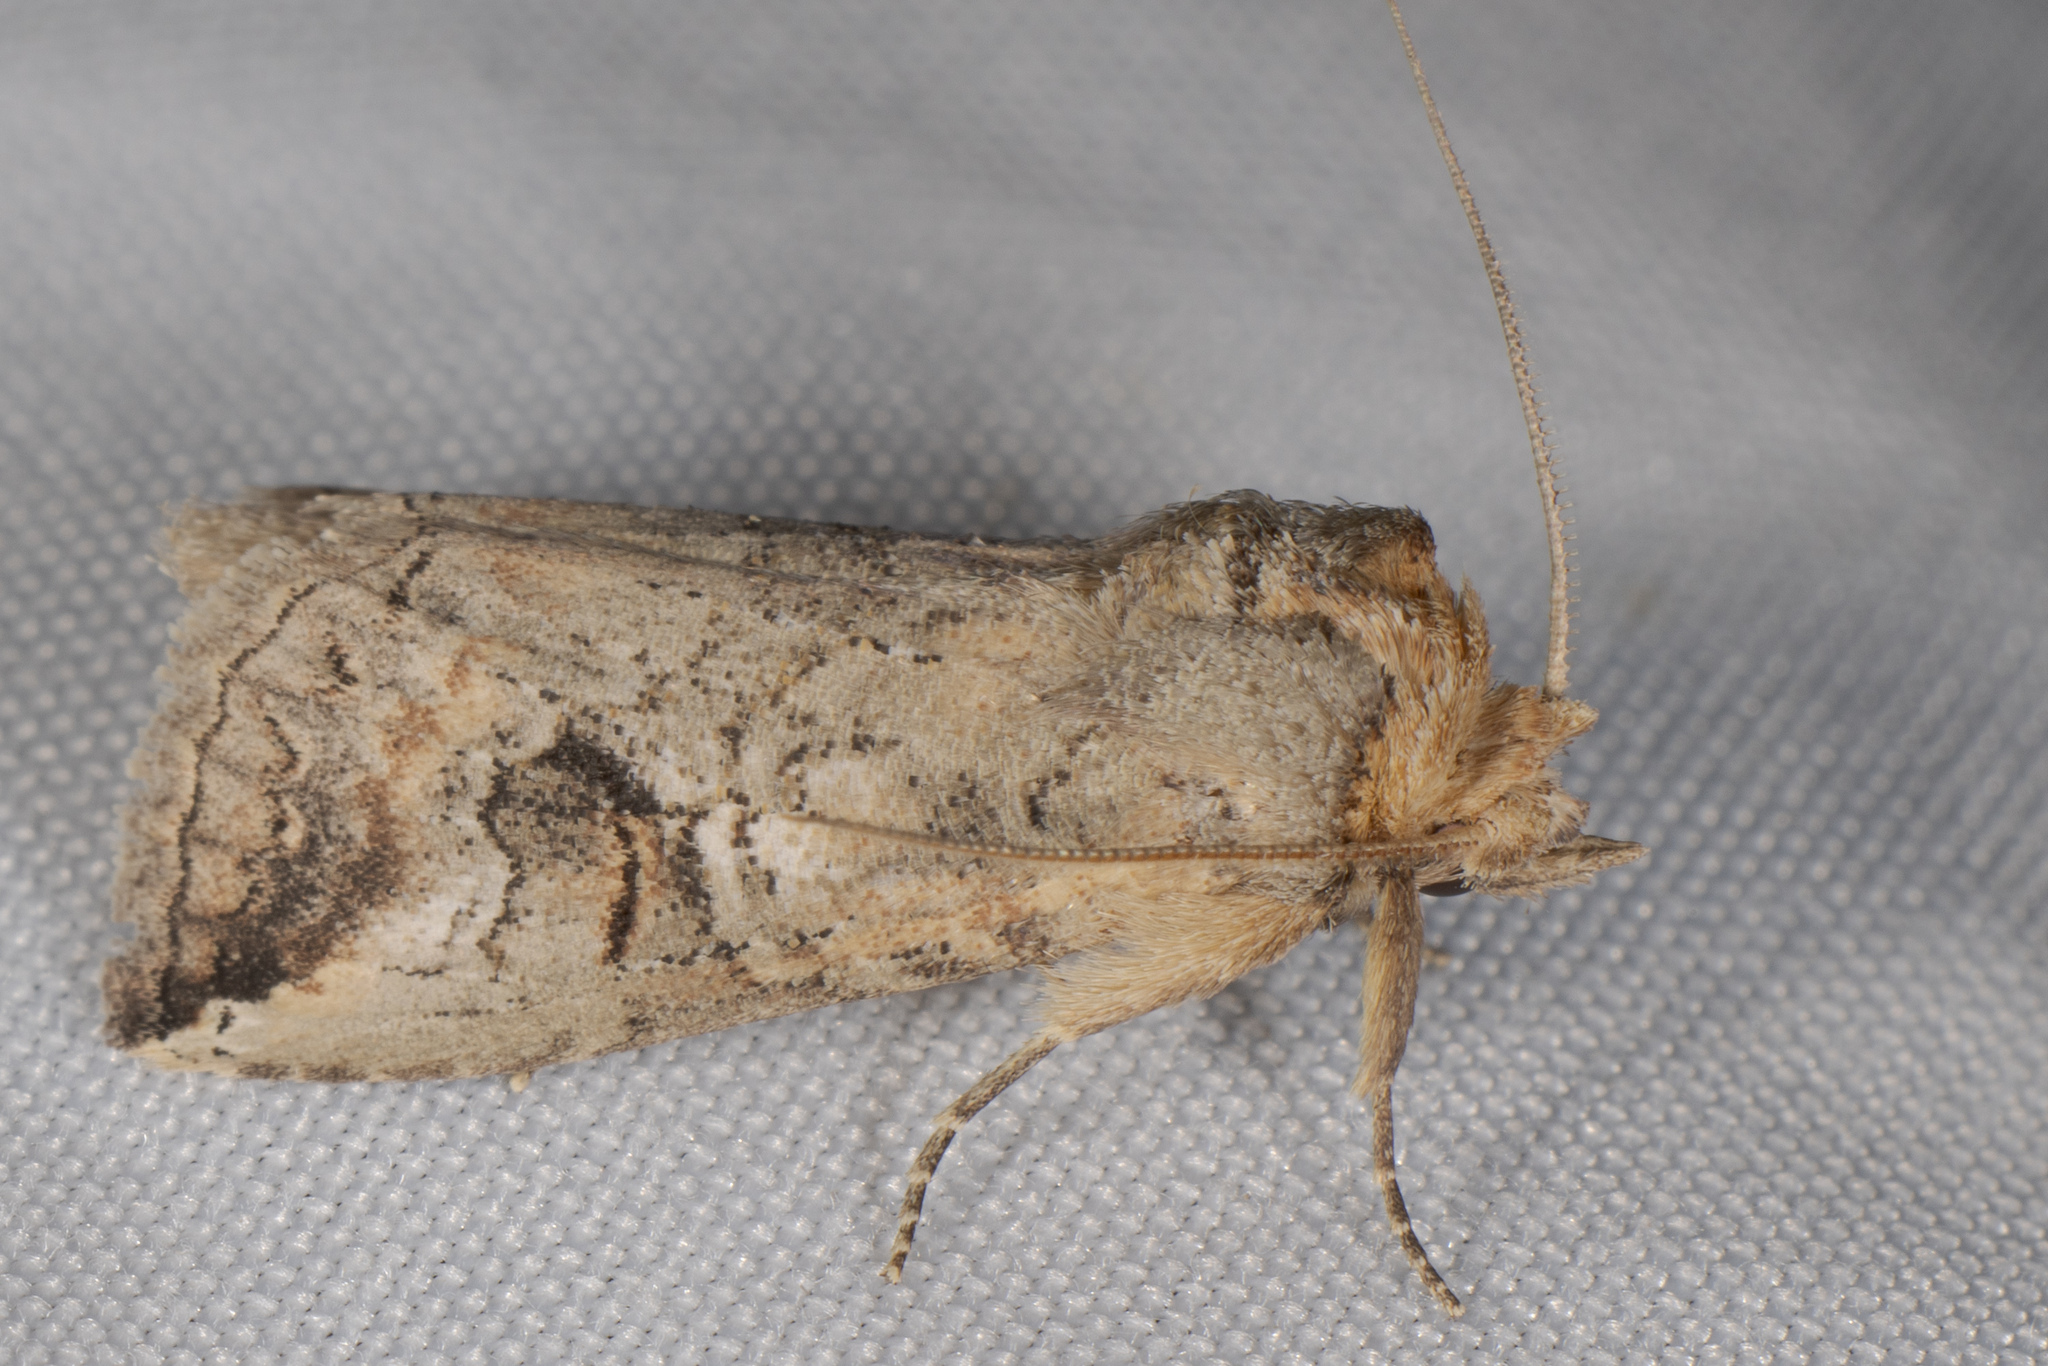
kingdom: Animalia
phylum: Arthropoda
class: Insecta
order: Lepidoptera
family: Notodontidae
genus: Elasmia
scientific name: Elasmia packardii
